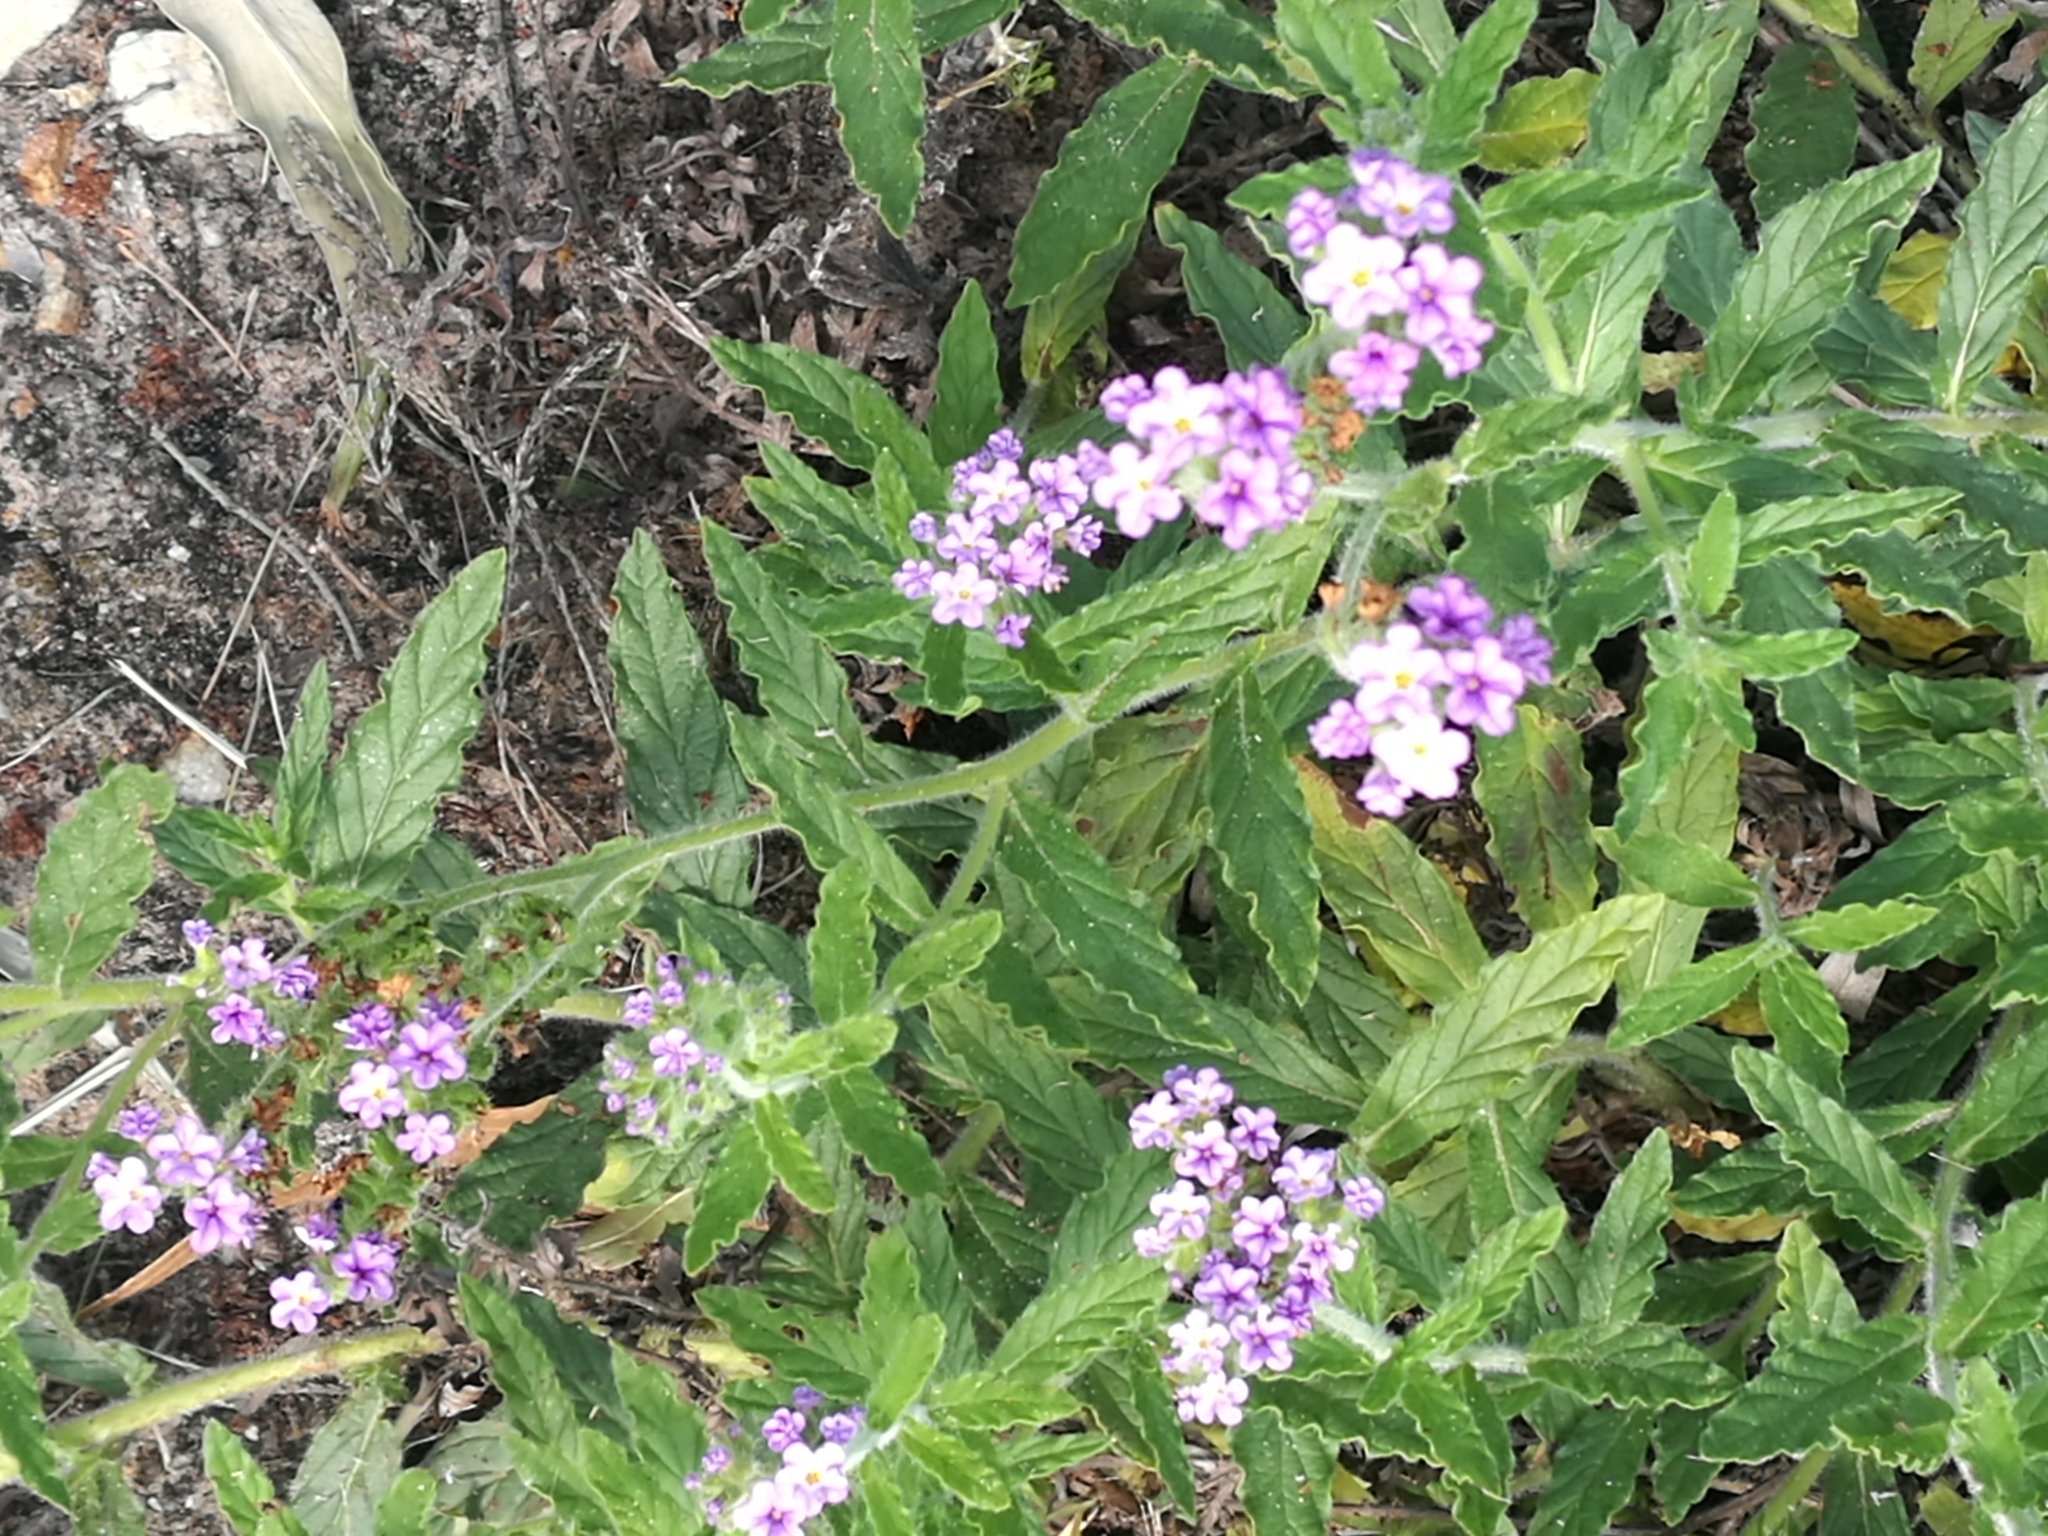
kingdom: Plantae
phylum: Tracheophyta
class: Magnoliopsida
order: Boraginales
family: Heliotropiaceae
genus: Heliotropium
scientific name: Heliotropium amplexicaule
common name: Clasping heliotrope
